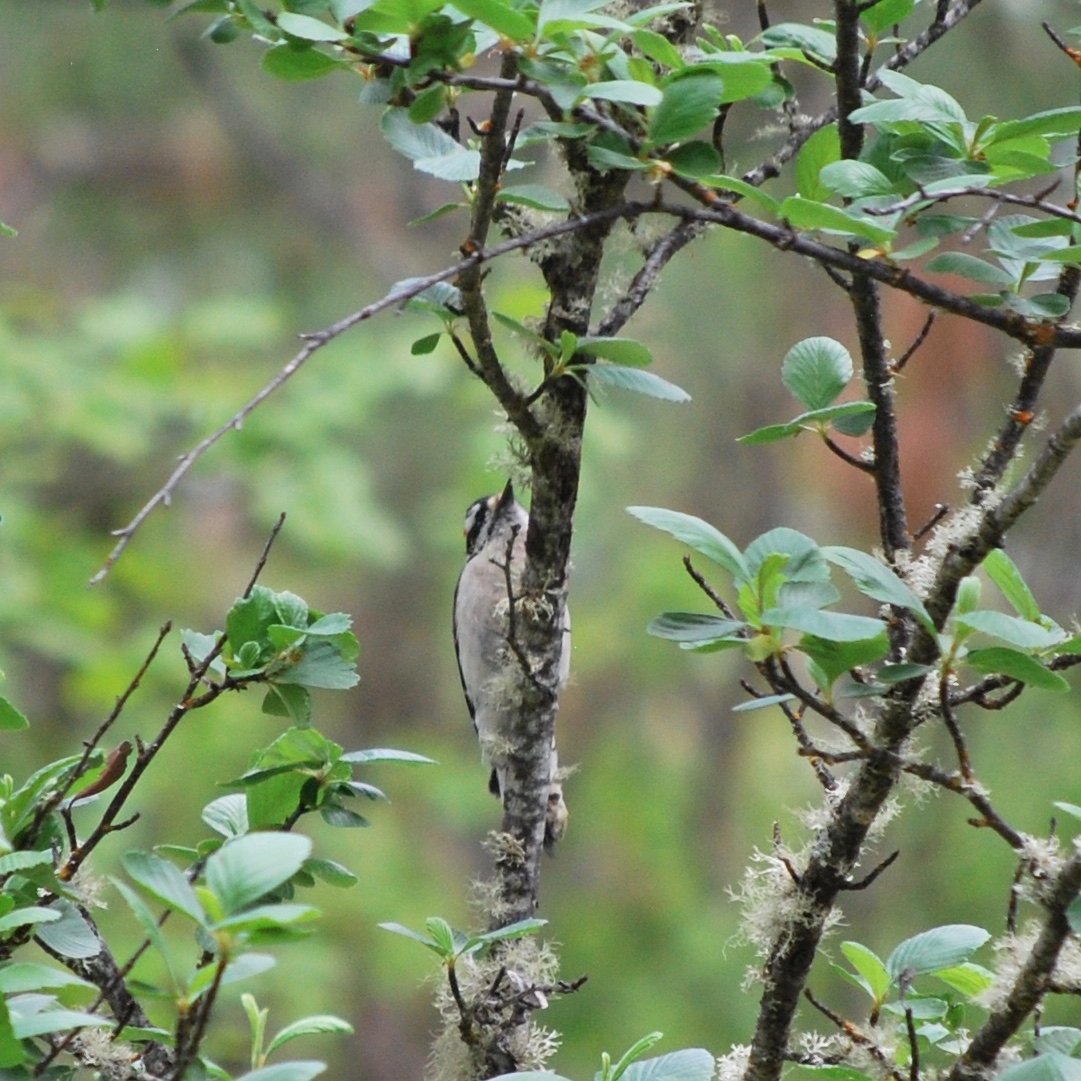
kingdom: Animalia
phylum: Chordata
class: Aves
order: Piciformes
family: Picidae
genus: Dryobates
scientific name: Dryobates pubescens
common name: Downy woodpecker
